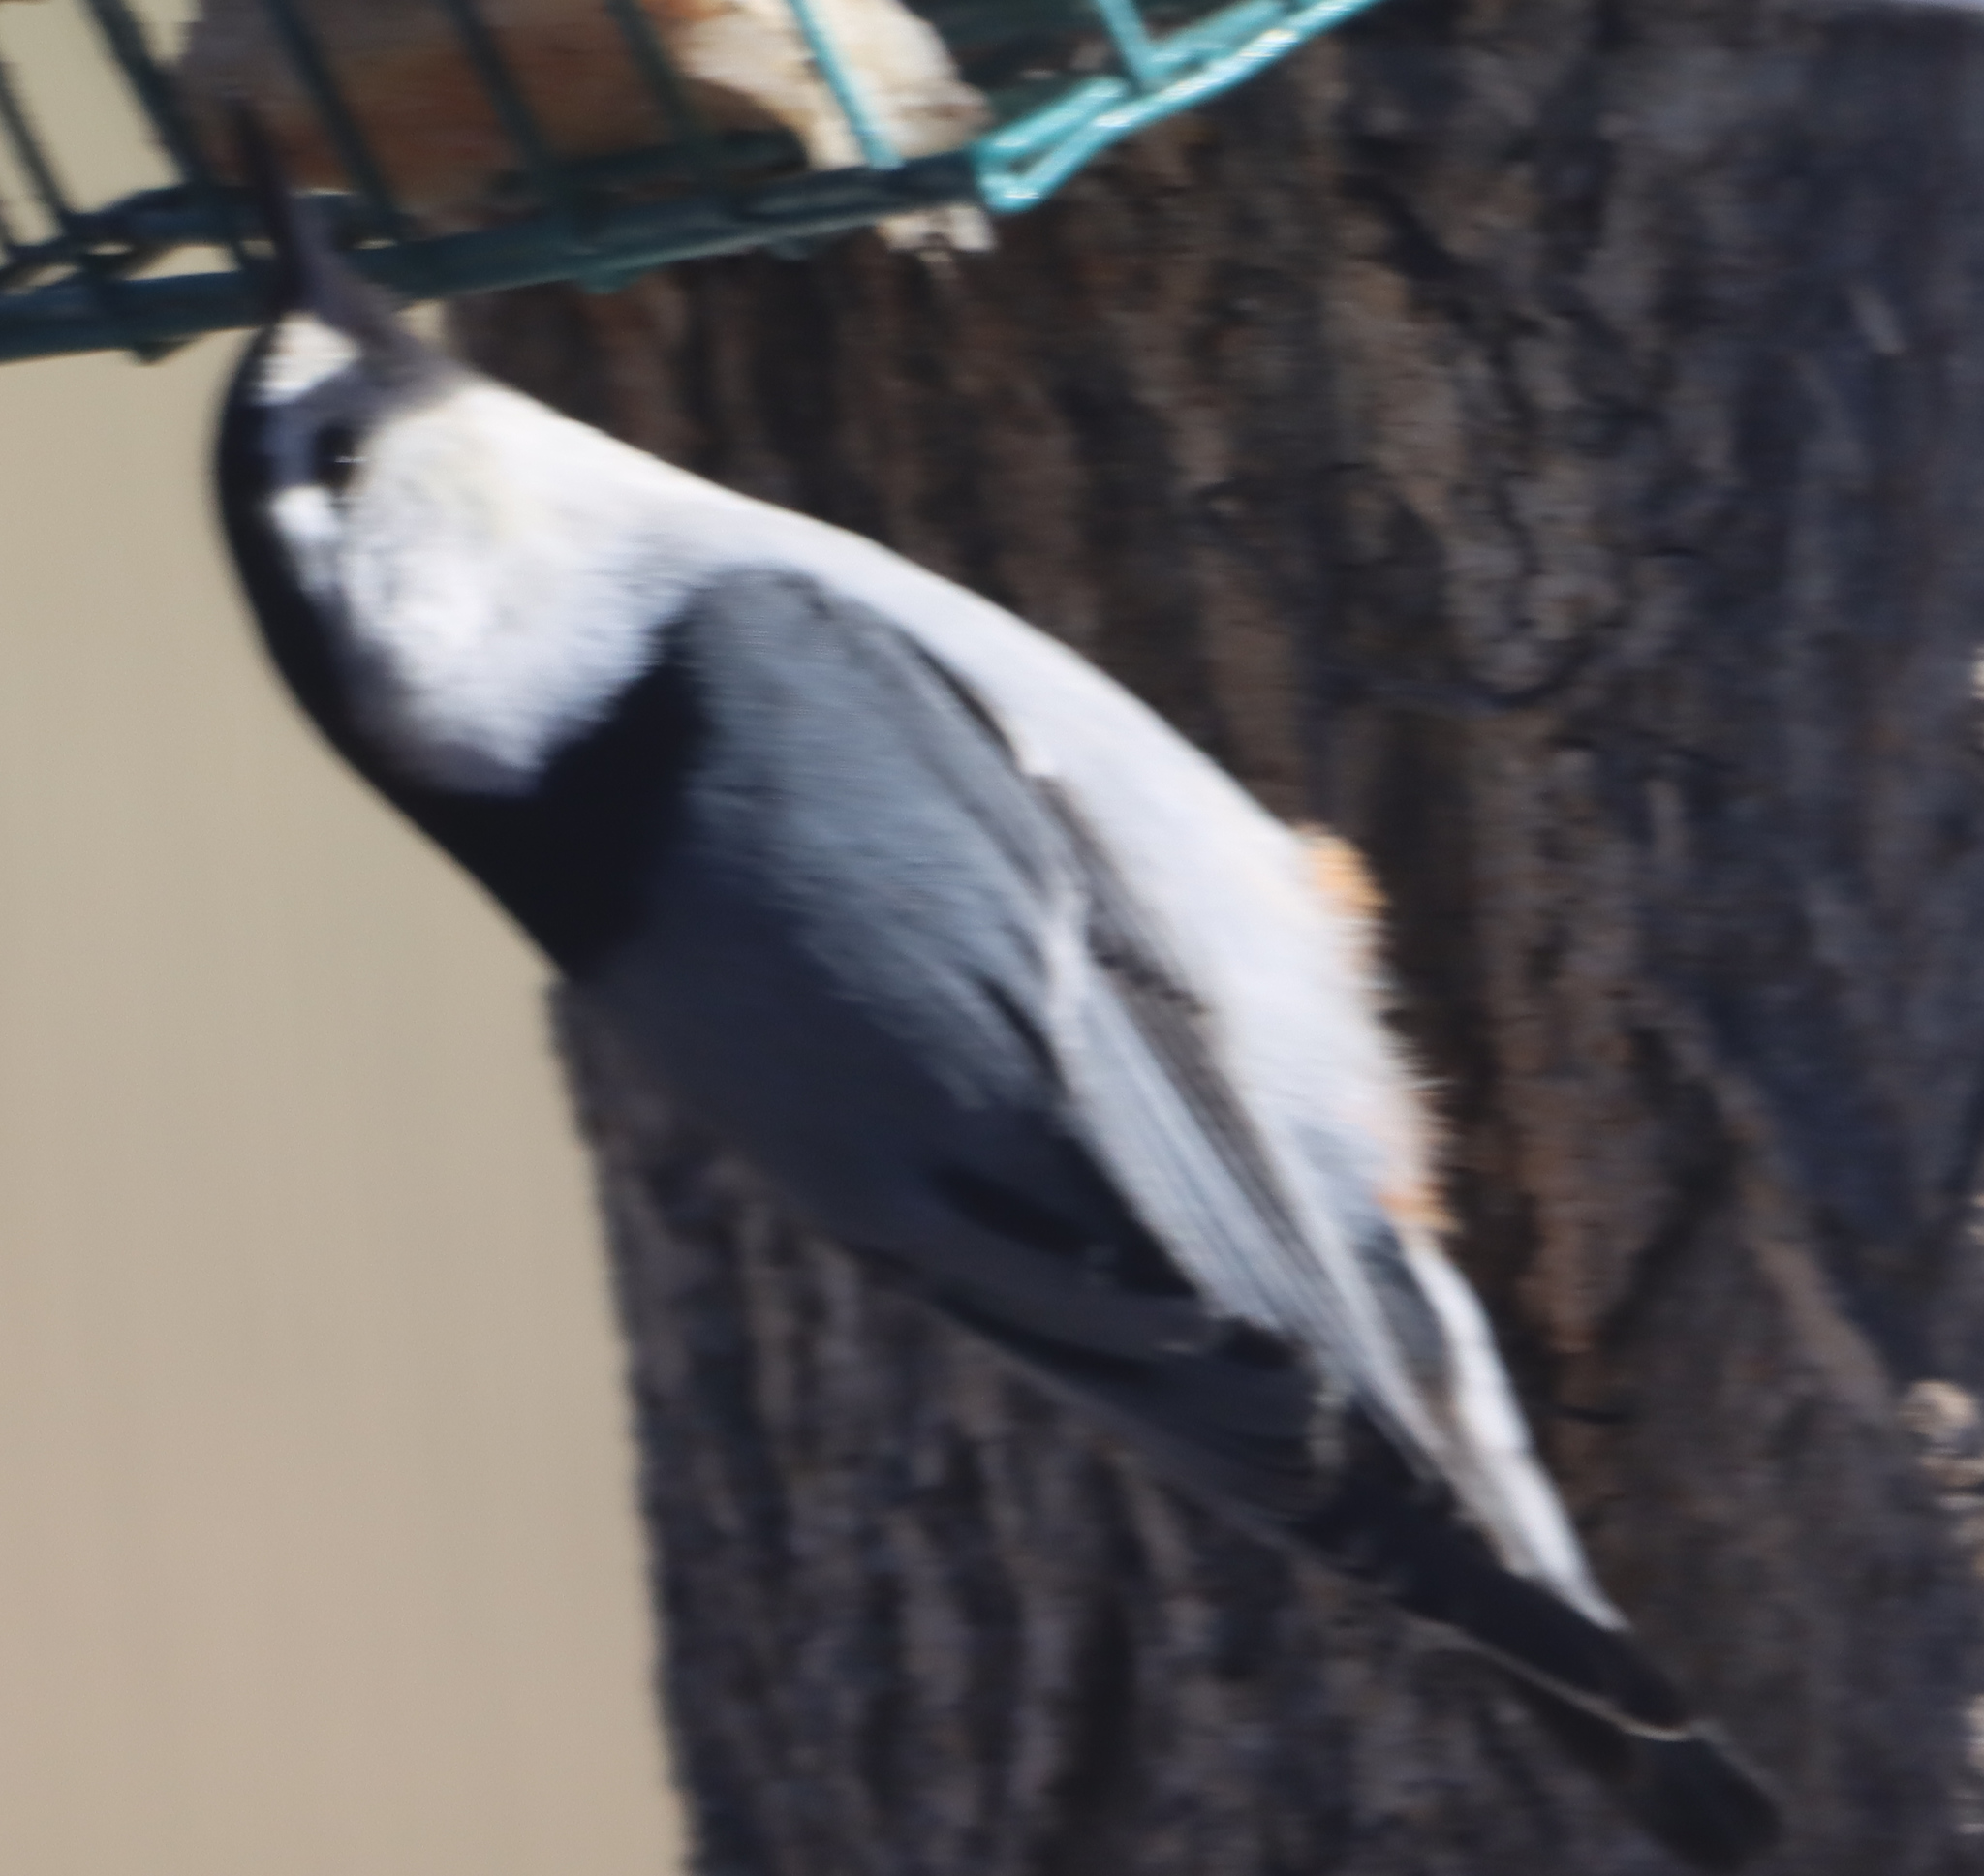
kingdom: Animalia
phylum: Chordata
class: Aves
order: Passeriformes
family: Sittidae
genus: Sitta
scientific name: Sitta carolinensis
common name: White-breasted nuthatch
